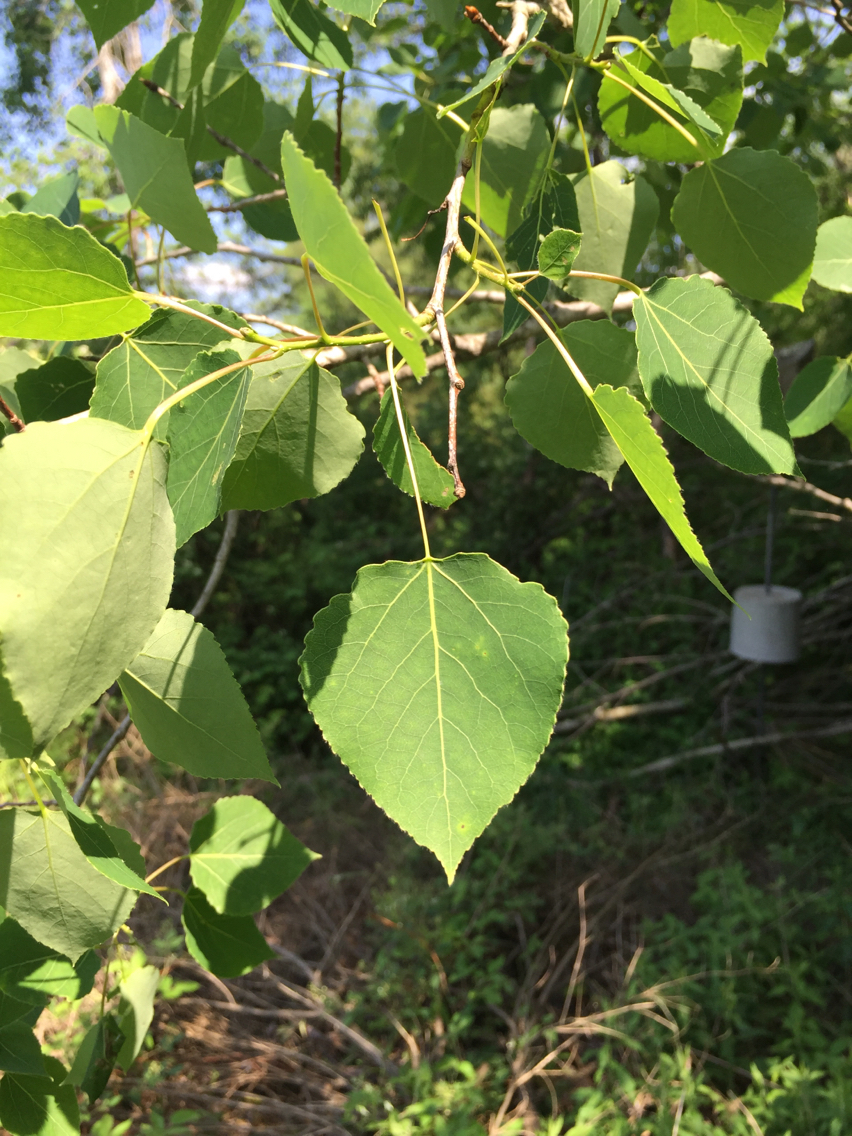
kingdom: Plantae
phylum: Tracheophyta
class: Magnoliopsida
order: Malpighiales
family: Salicaceae
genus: Populus
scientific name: Populus tremuloides
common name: Quaking aspen
